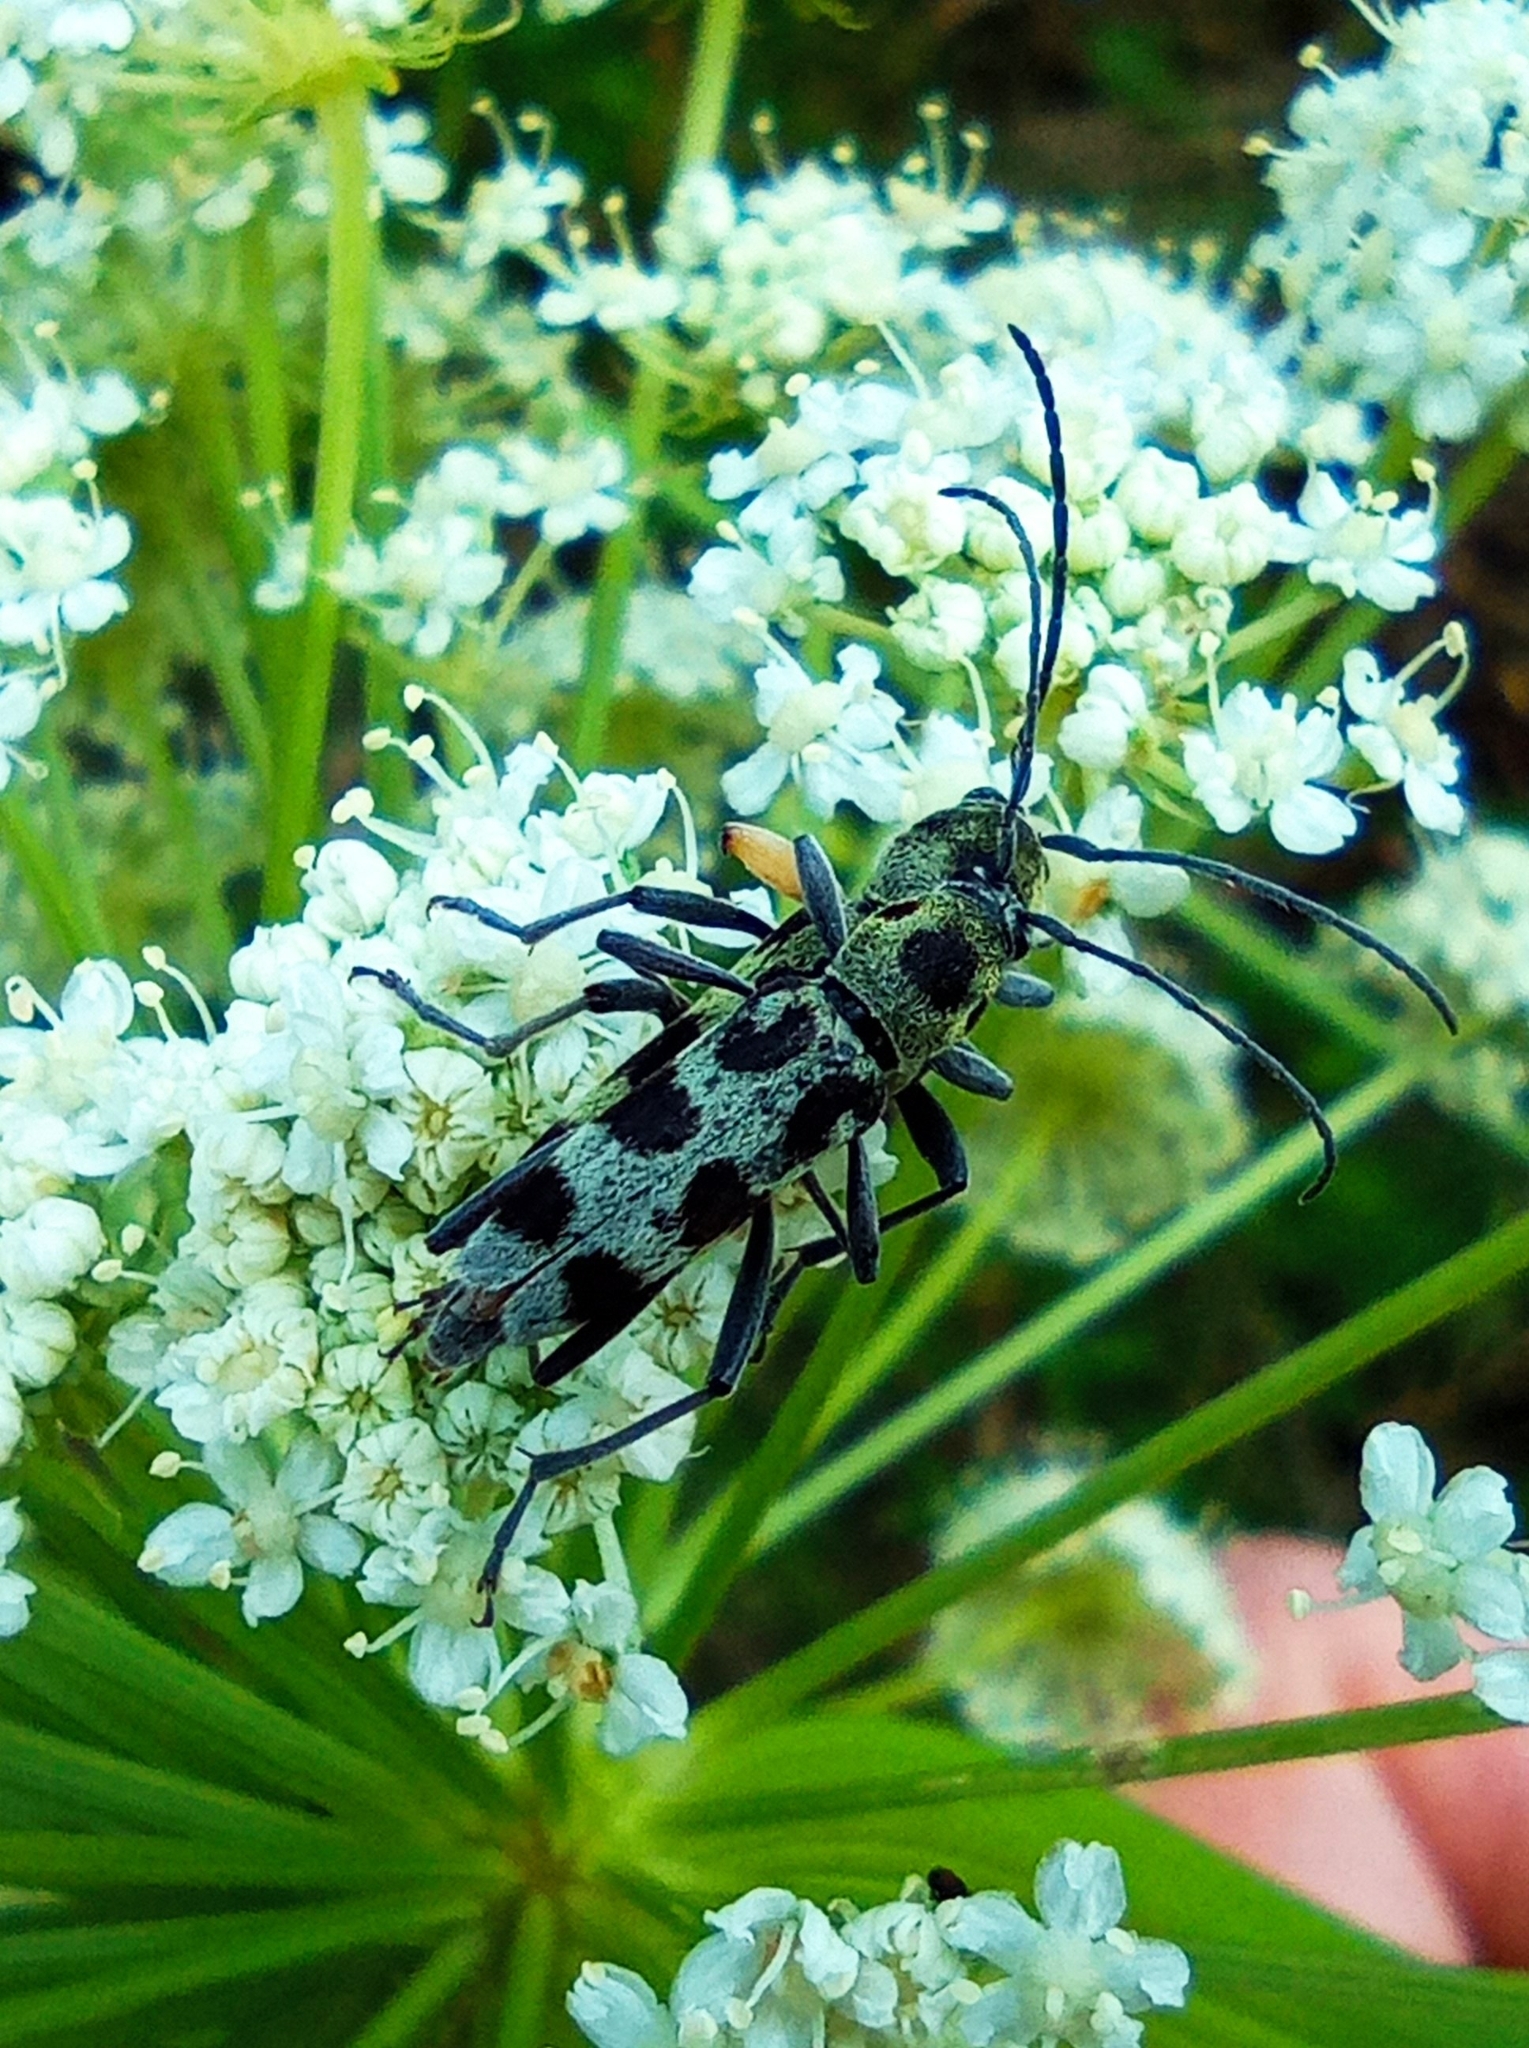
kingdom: Animalia
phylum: Arthropoda
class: Insecta
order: Coleoptera
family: Cerambycidae
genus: Chlorophorus
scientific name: Chlorophorus herbstii
